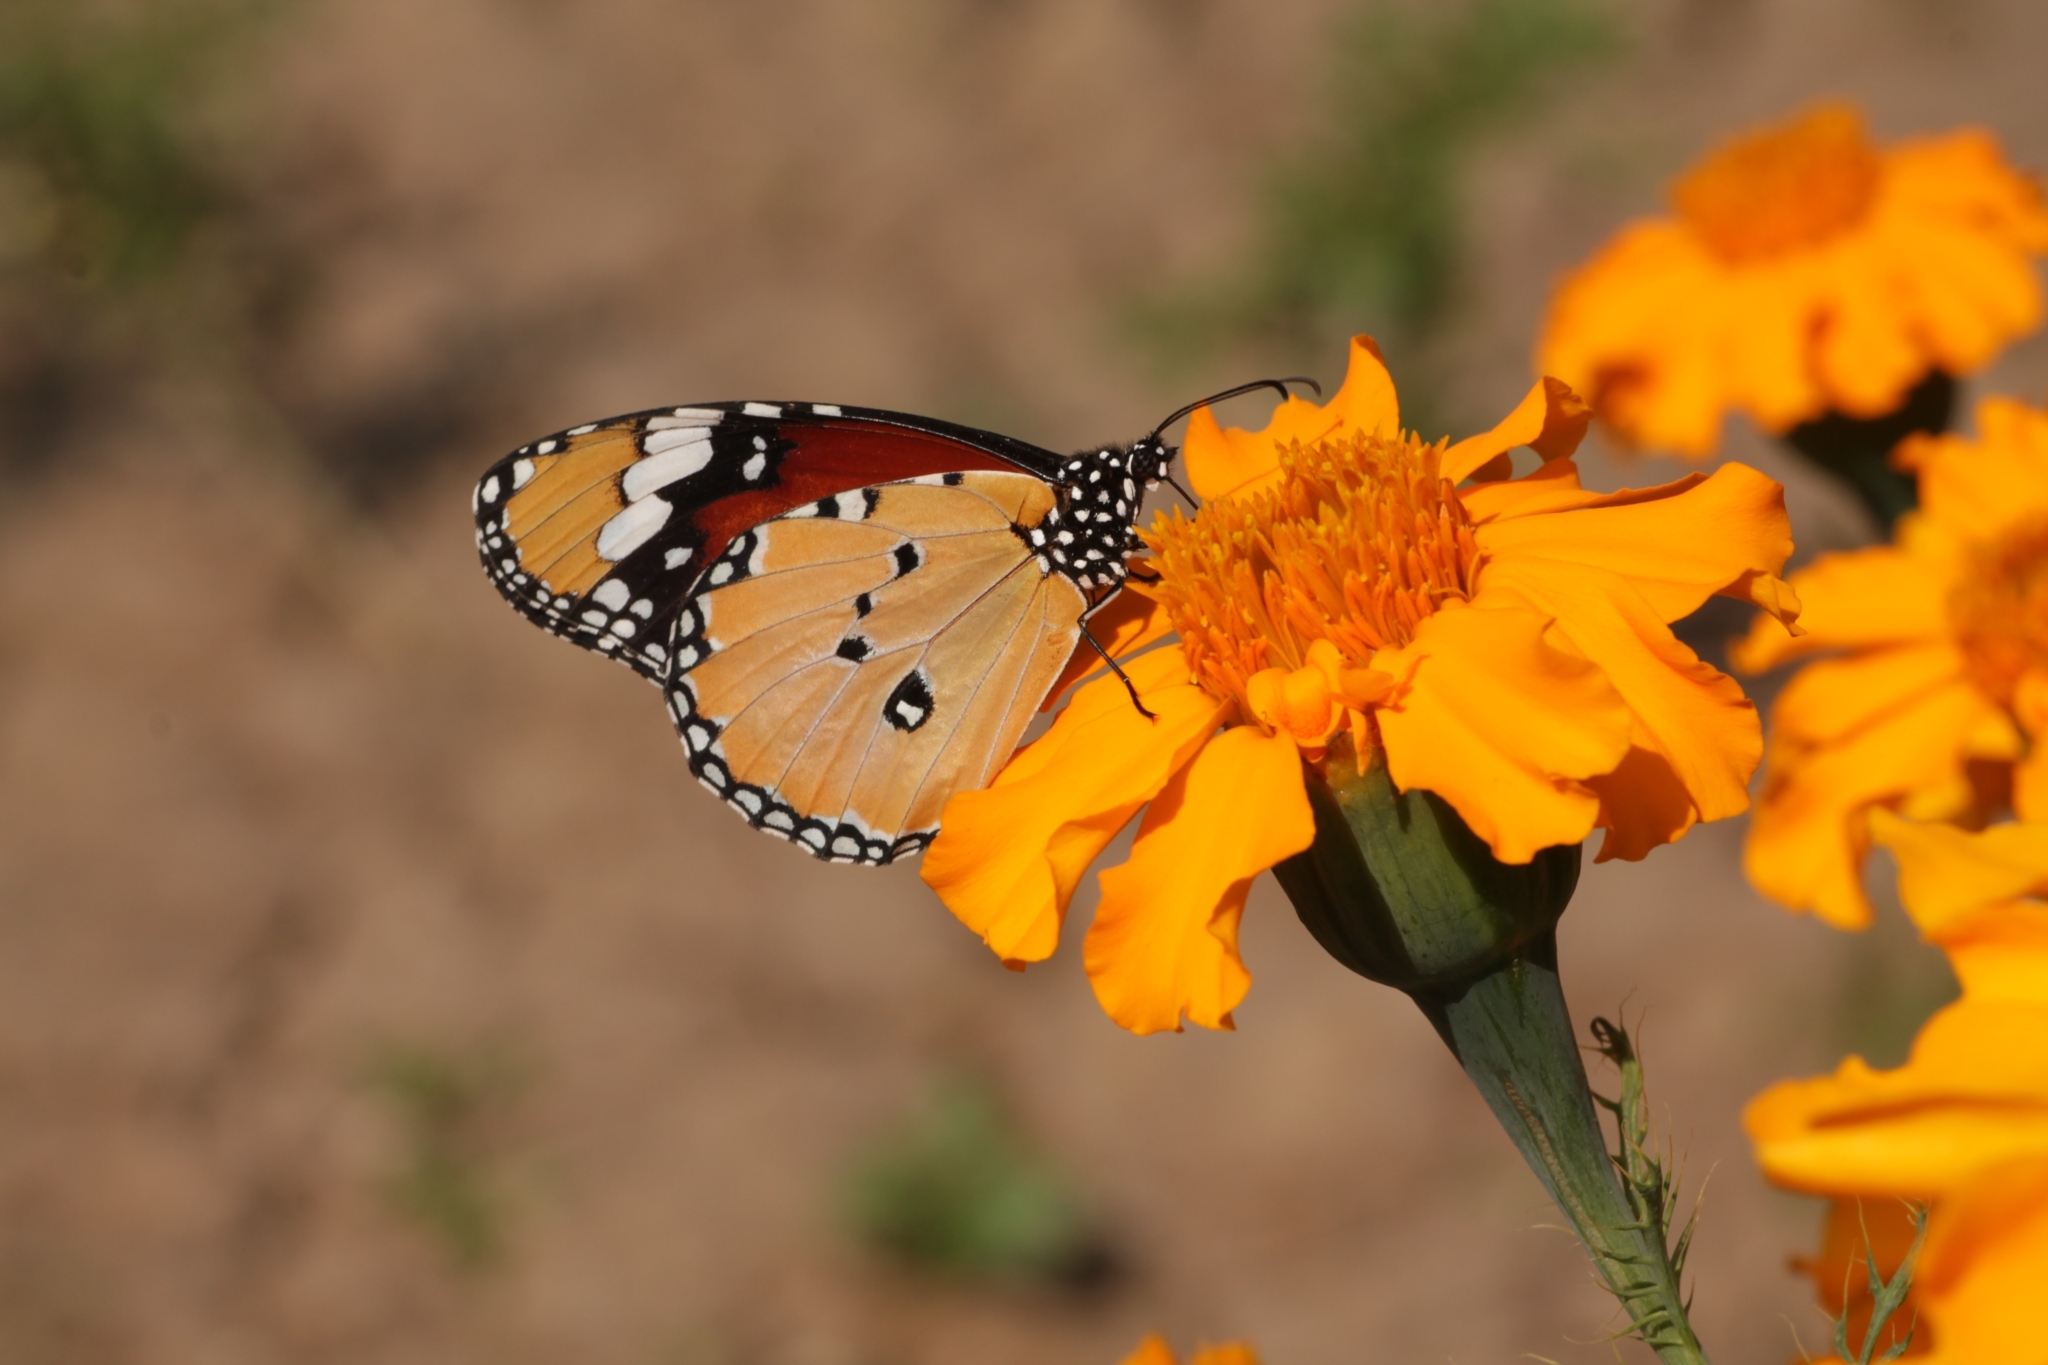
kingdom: Animalia
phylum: Arthropoda
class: Insecta
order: Lepidoptera
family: Nymphalidae
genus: Danaus
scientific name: Danaus chrysippus
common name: Plain tiger
